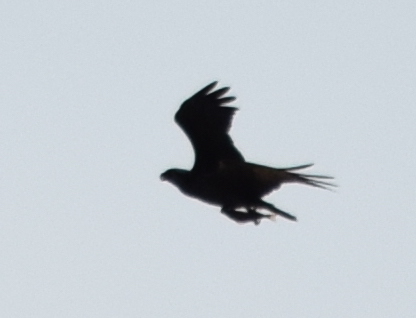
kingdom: Animalia
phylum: Chordata
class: Aves
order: Accipitriformes
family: Pandionidae
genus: Pandion
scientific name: Pandion haliaetus
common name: Osprey
